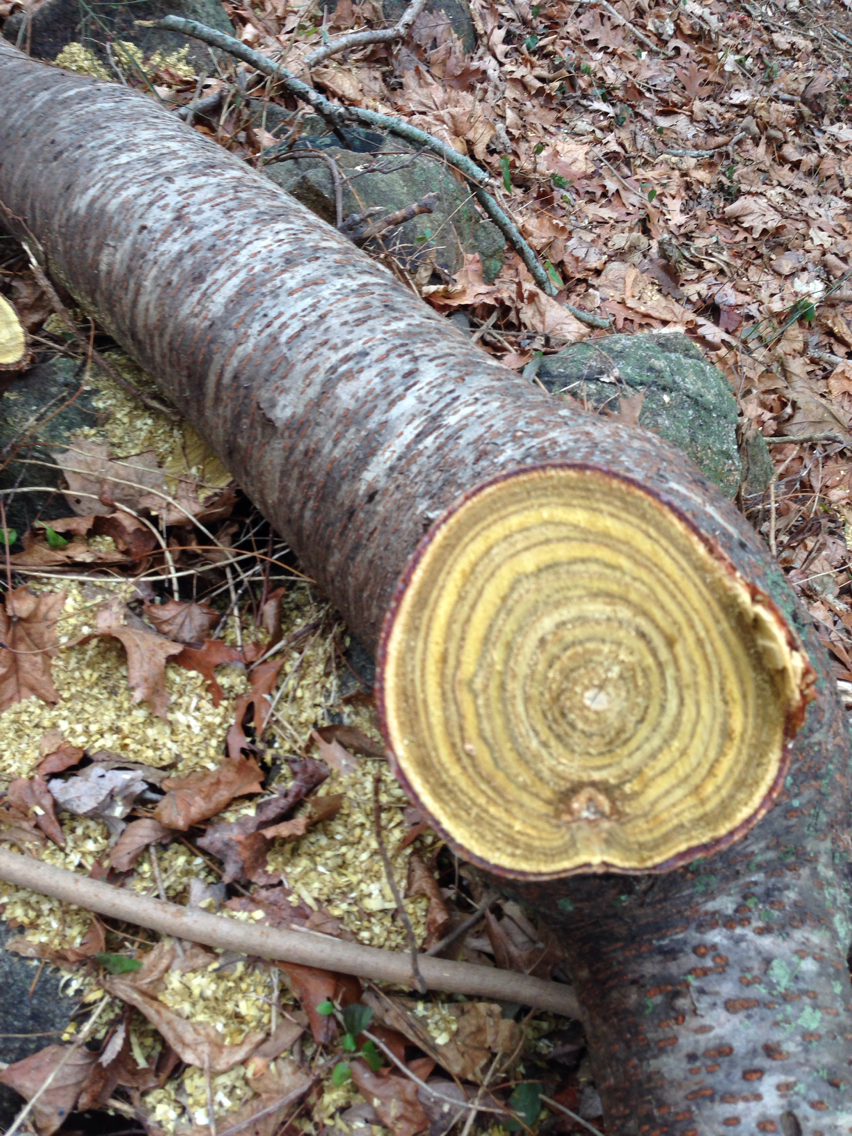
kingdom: Plantae
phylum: Tracheophyta
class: Magnoliopsida
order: Sapindales
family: Anacardiaceae
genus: Rhus
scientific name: Rhus typhina
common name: Staghorn sumac
